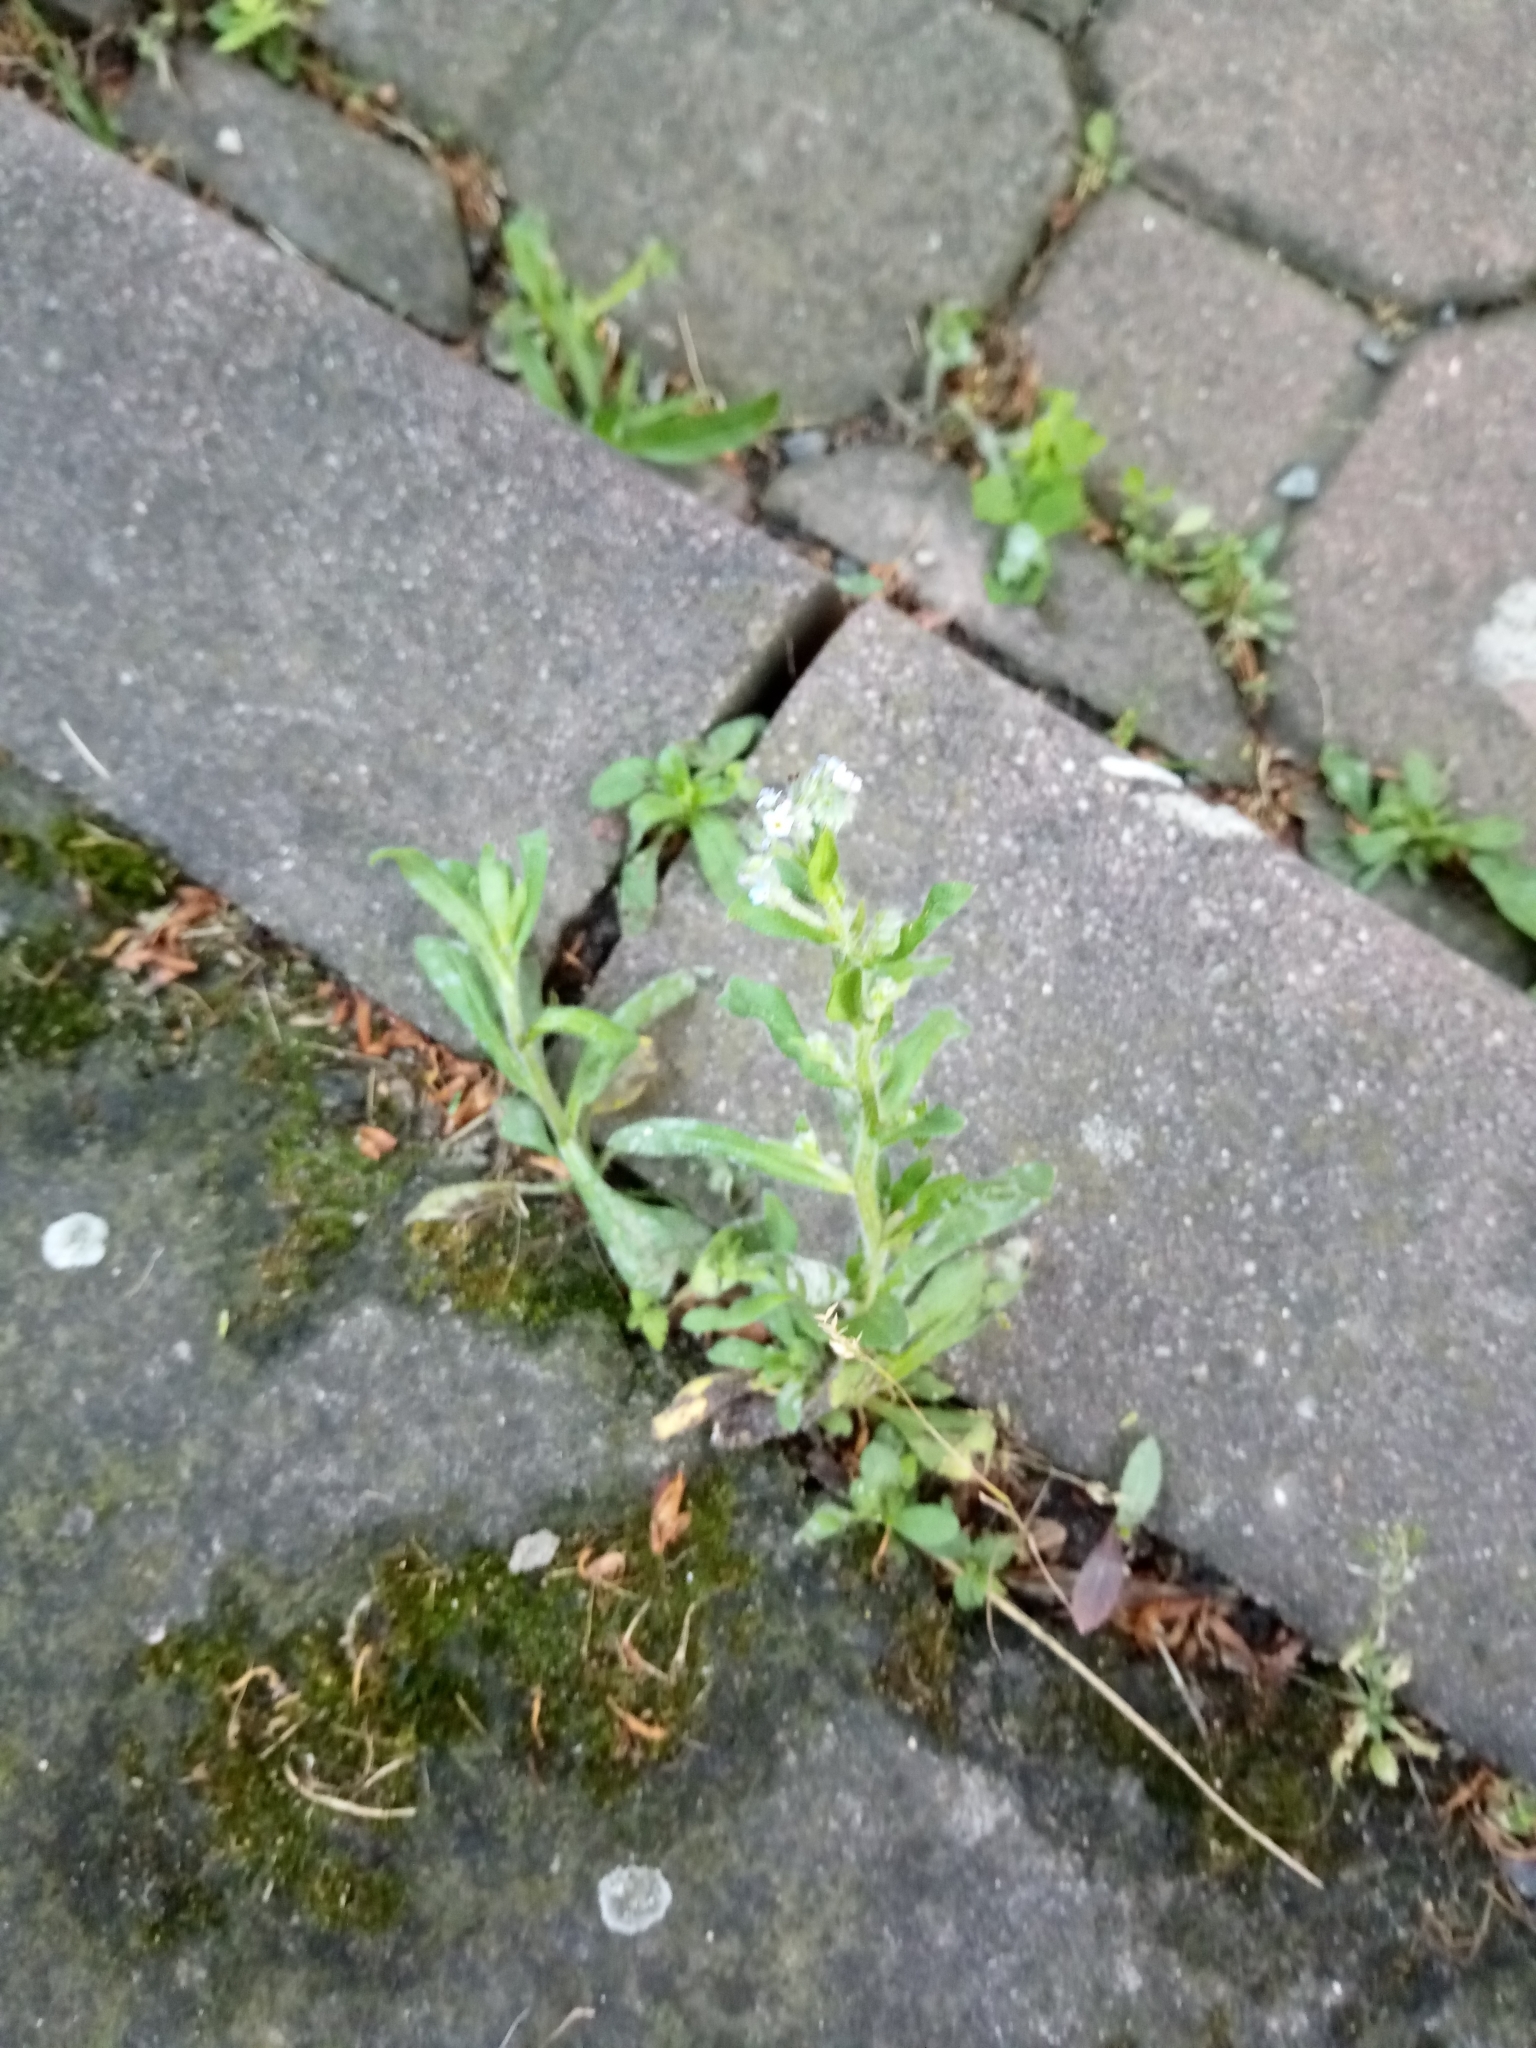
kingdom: Plantae
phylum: Tracheophyta
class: Magnoliopsida
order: Boraginales
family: Boraginaceae
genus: Myosotis
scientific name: Myosotis arvensis
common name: Field forget-me-not
